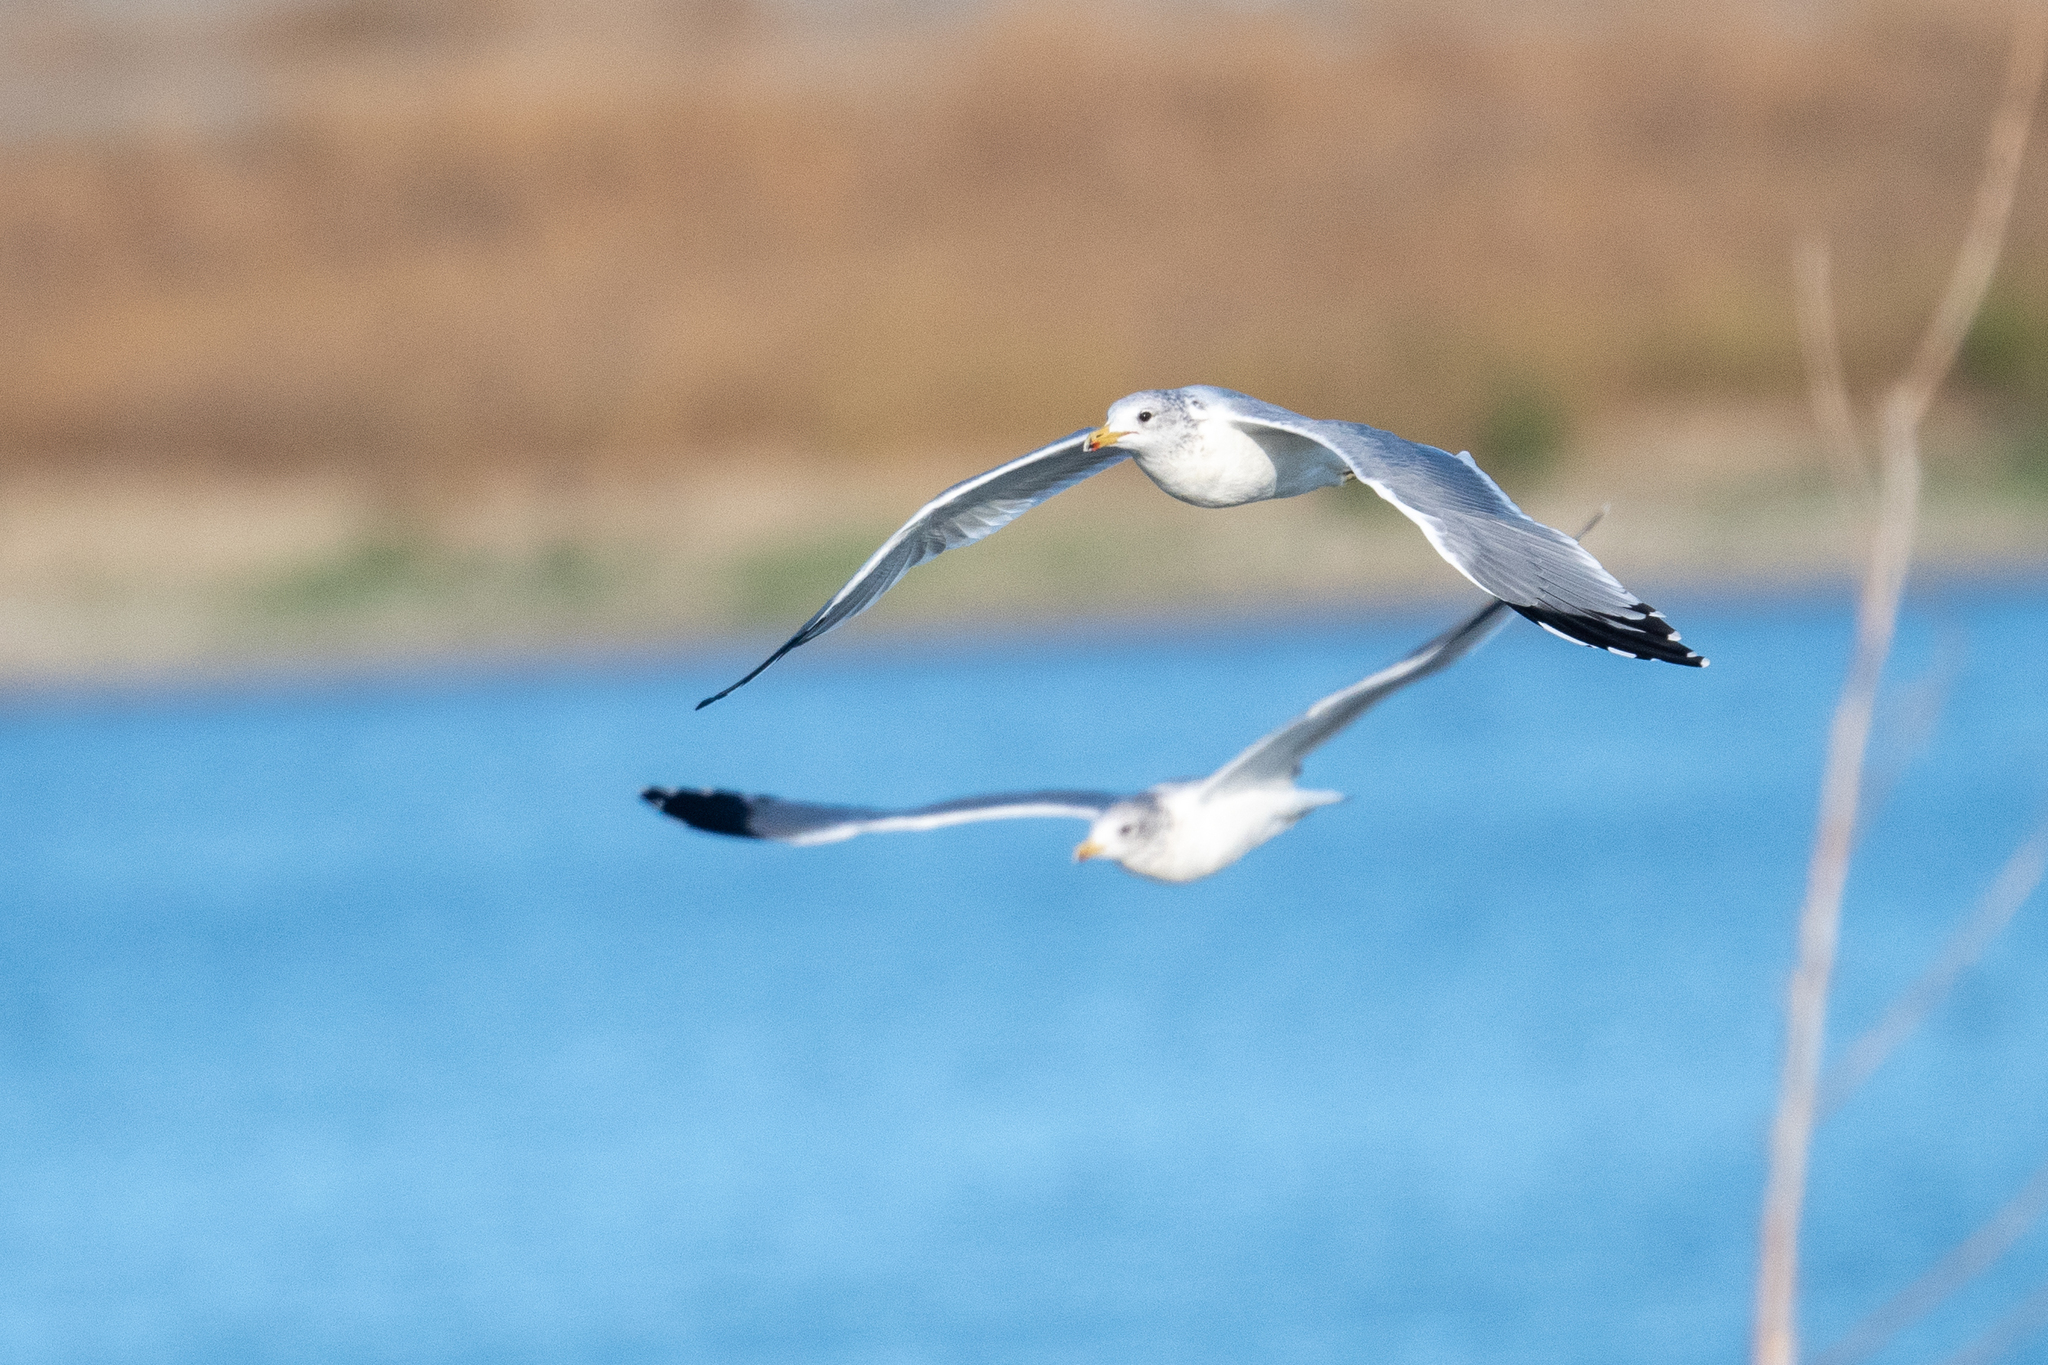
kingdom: Animalia
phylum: Chordata
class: Aves
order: Charadriiformes
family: Laridae
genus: Larus
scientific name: Larus californicus
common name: California gull
